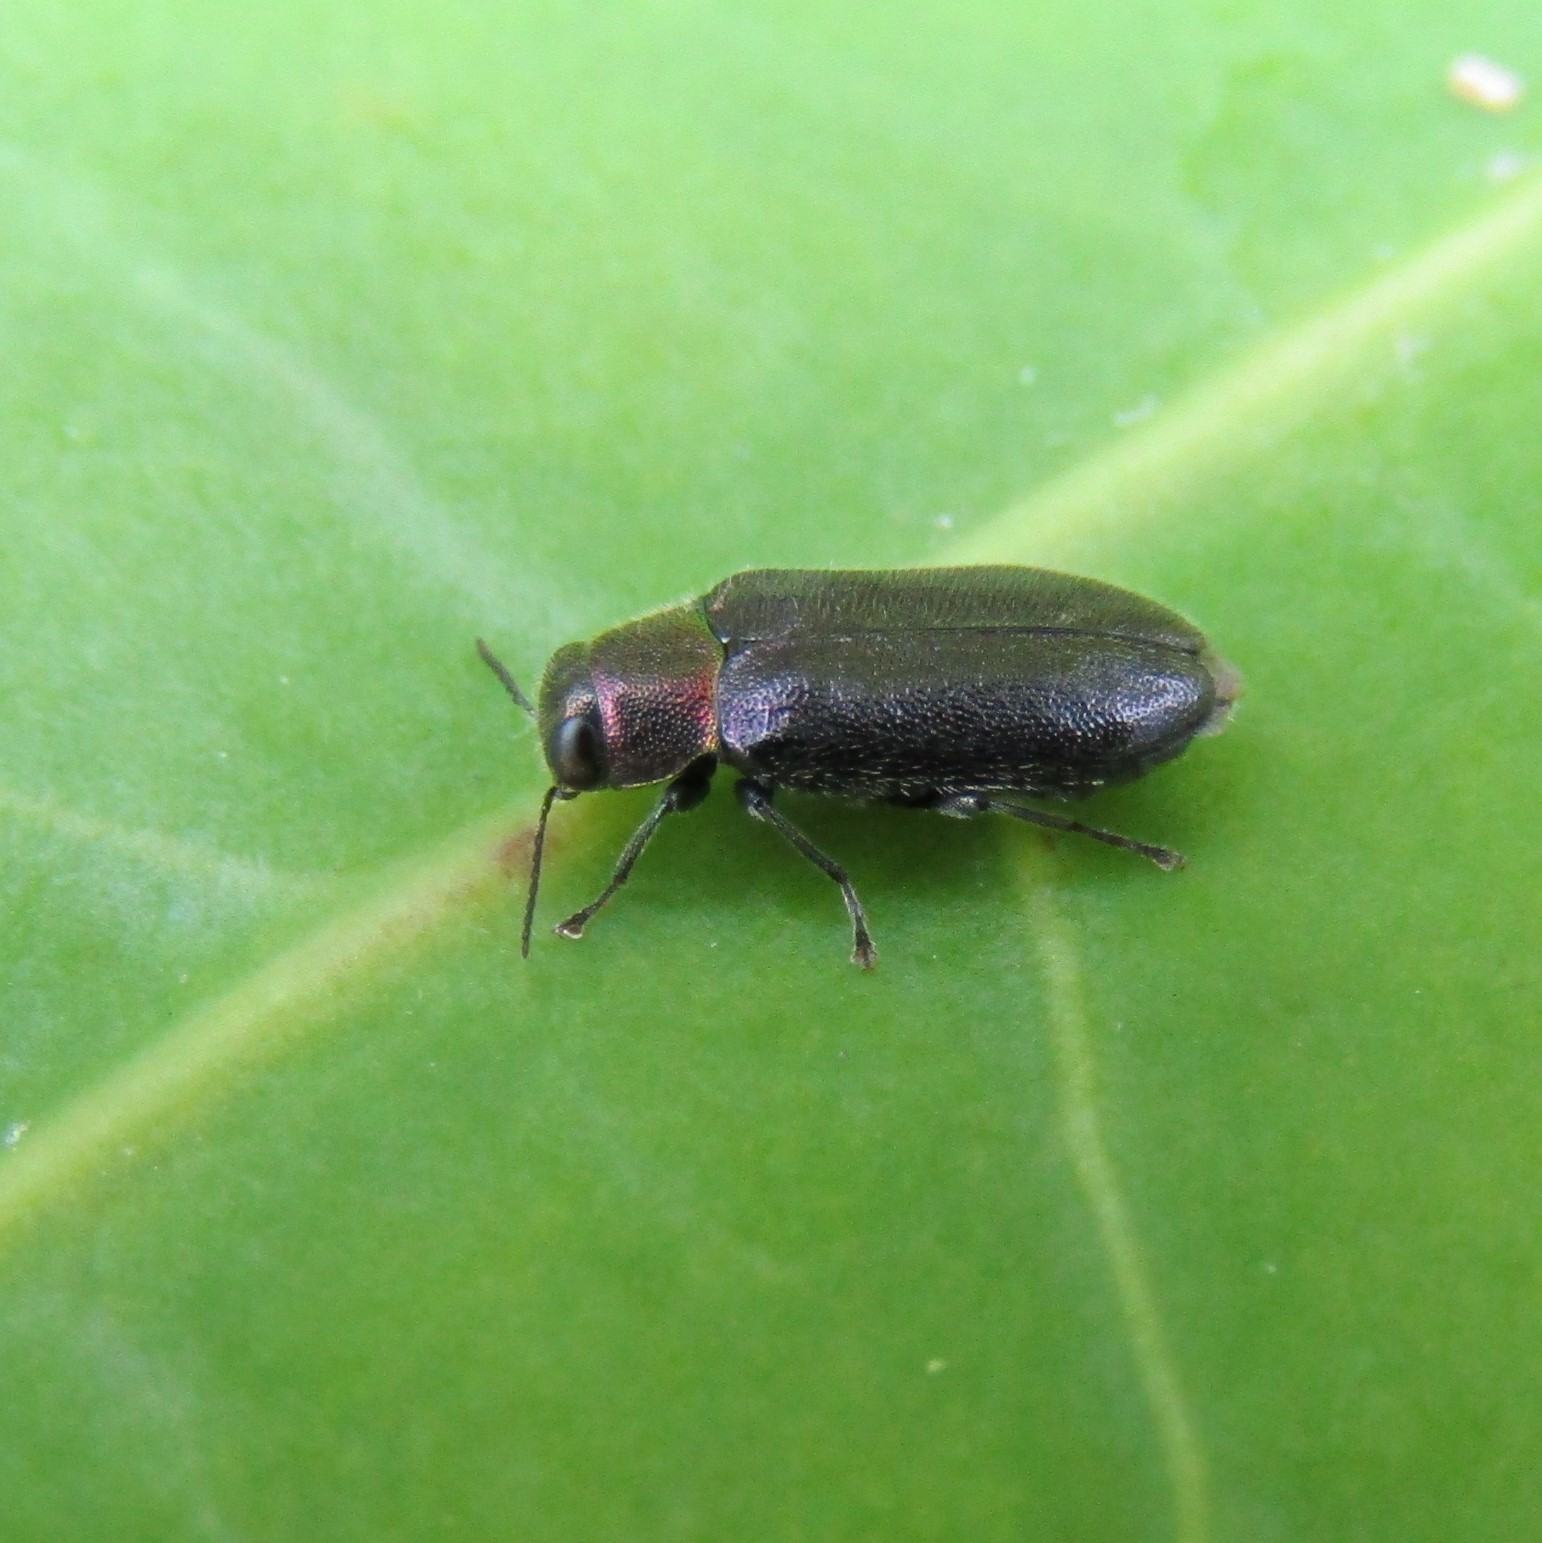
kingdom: Animalia
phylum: Arthropoda
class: Insecta
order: Coleoptera
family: Buprestidae
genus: Maoraxia
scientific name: Maoraxia eremita
